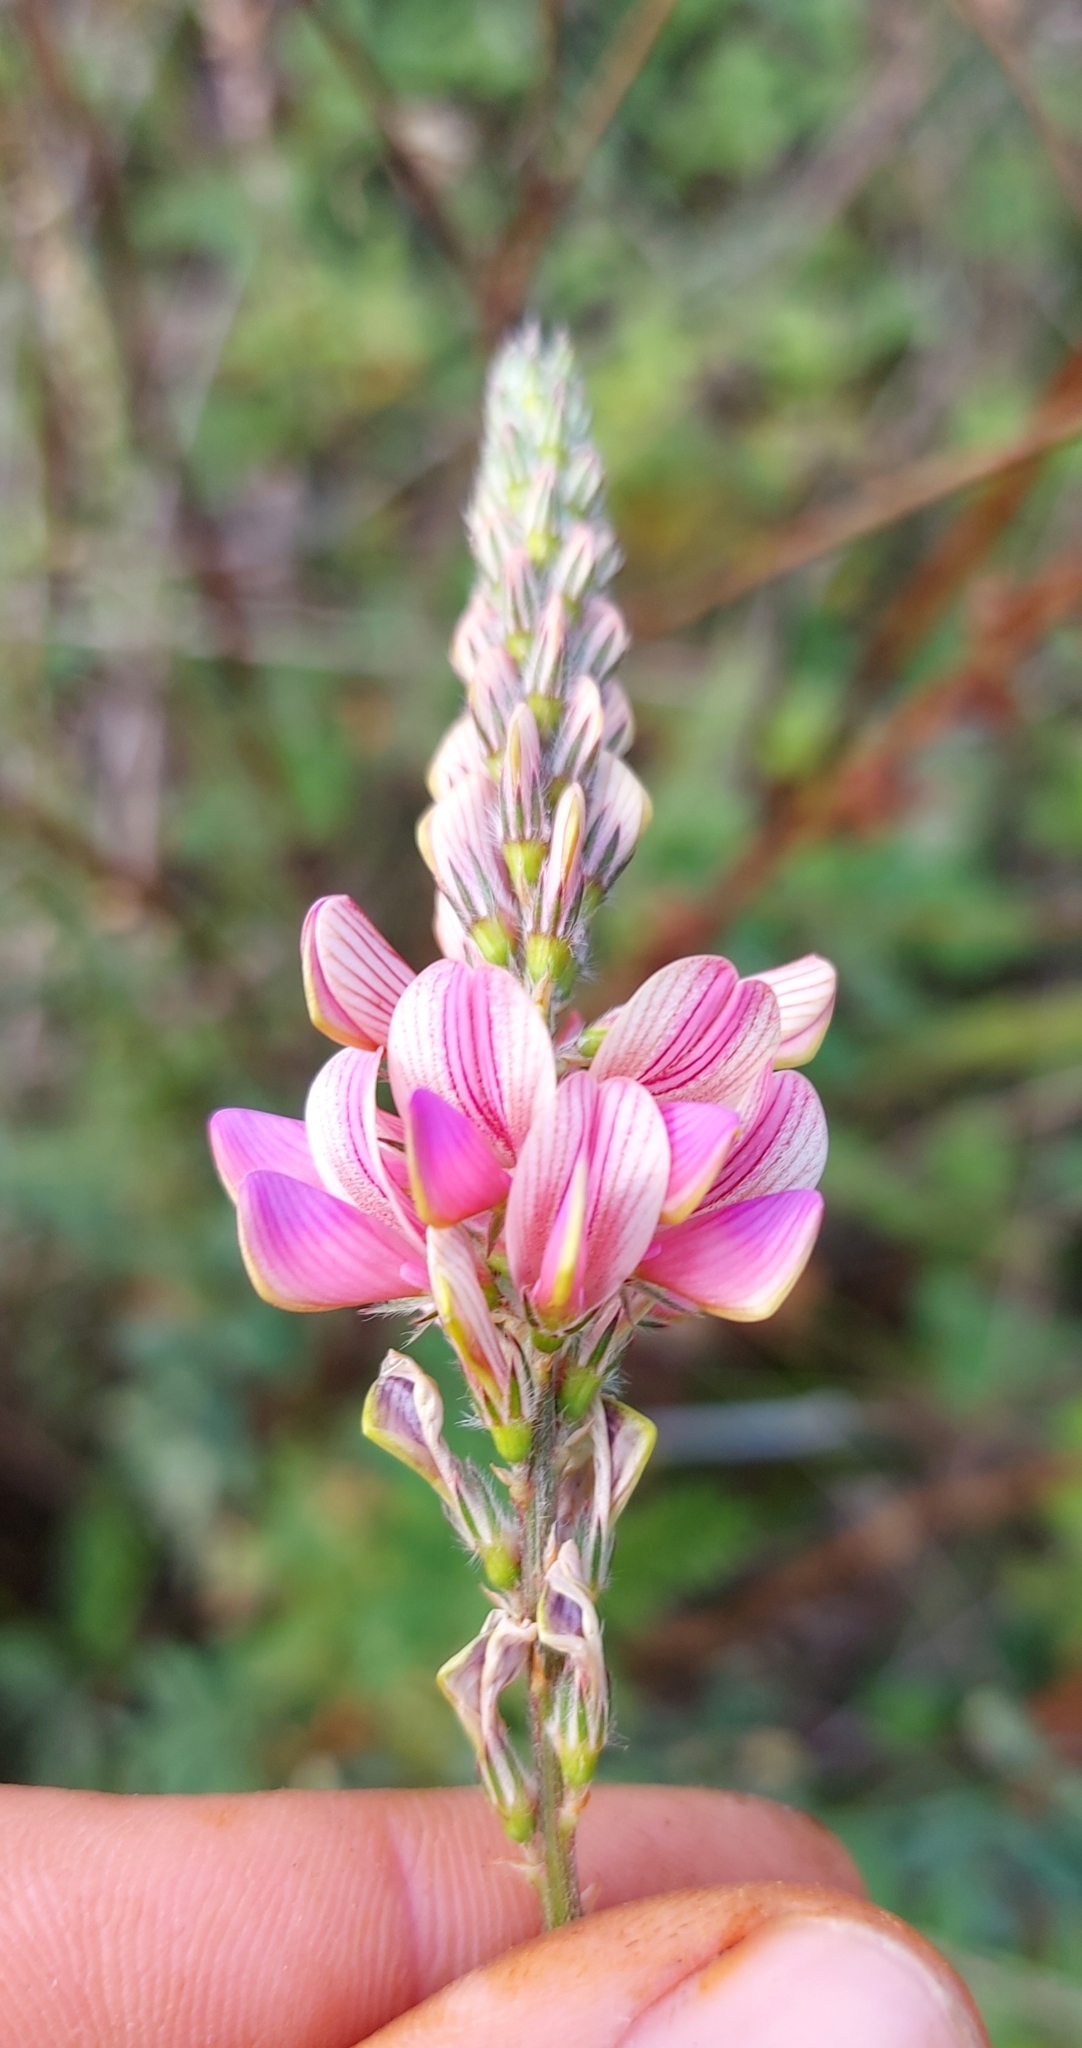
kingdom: Plantae
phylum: Tracheophyta
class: Magnoliopsida
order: Fabales
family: Fabaceae
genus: Onobrychis
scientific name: Onobrychis viciifolia
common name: Sainfoin
